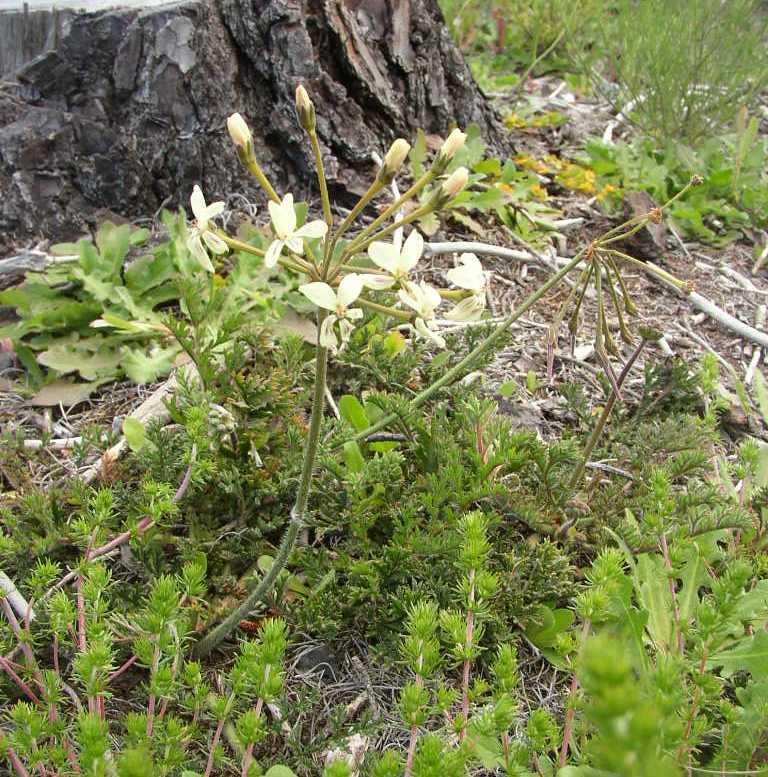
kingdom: Plantae
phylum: Tracheophyta
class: Magnoliopsida
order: Geraniales
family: Geraniaceae
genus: Pelargonium
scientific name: Pelargonium triste
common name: Night-scent pelargonium
